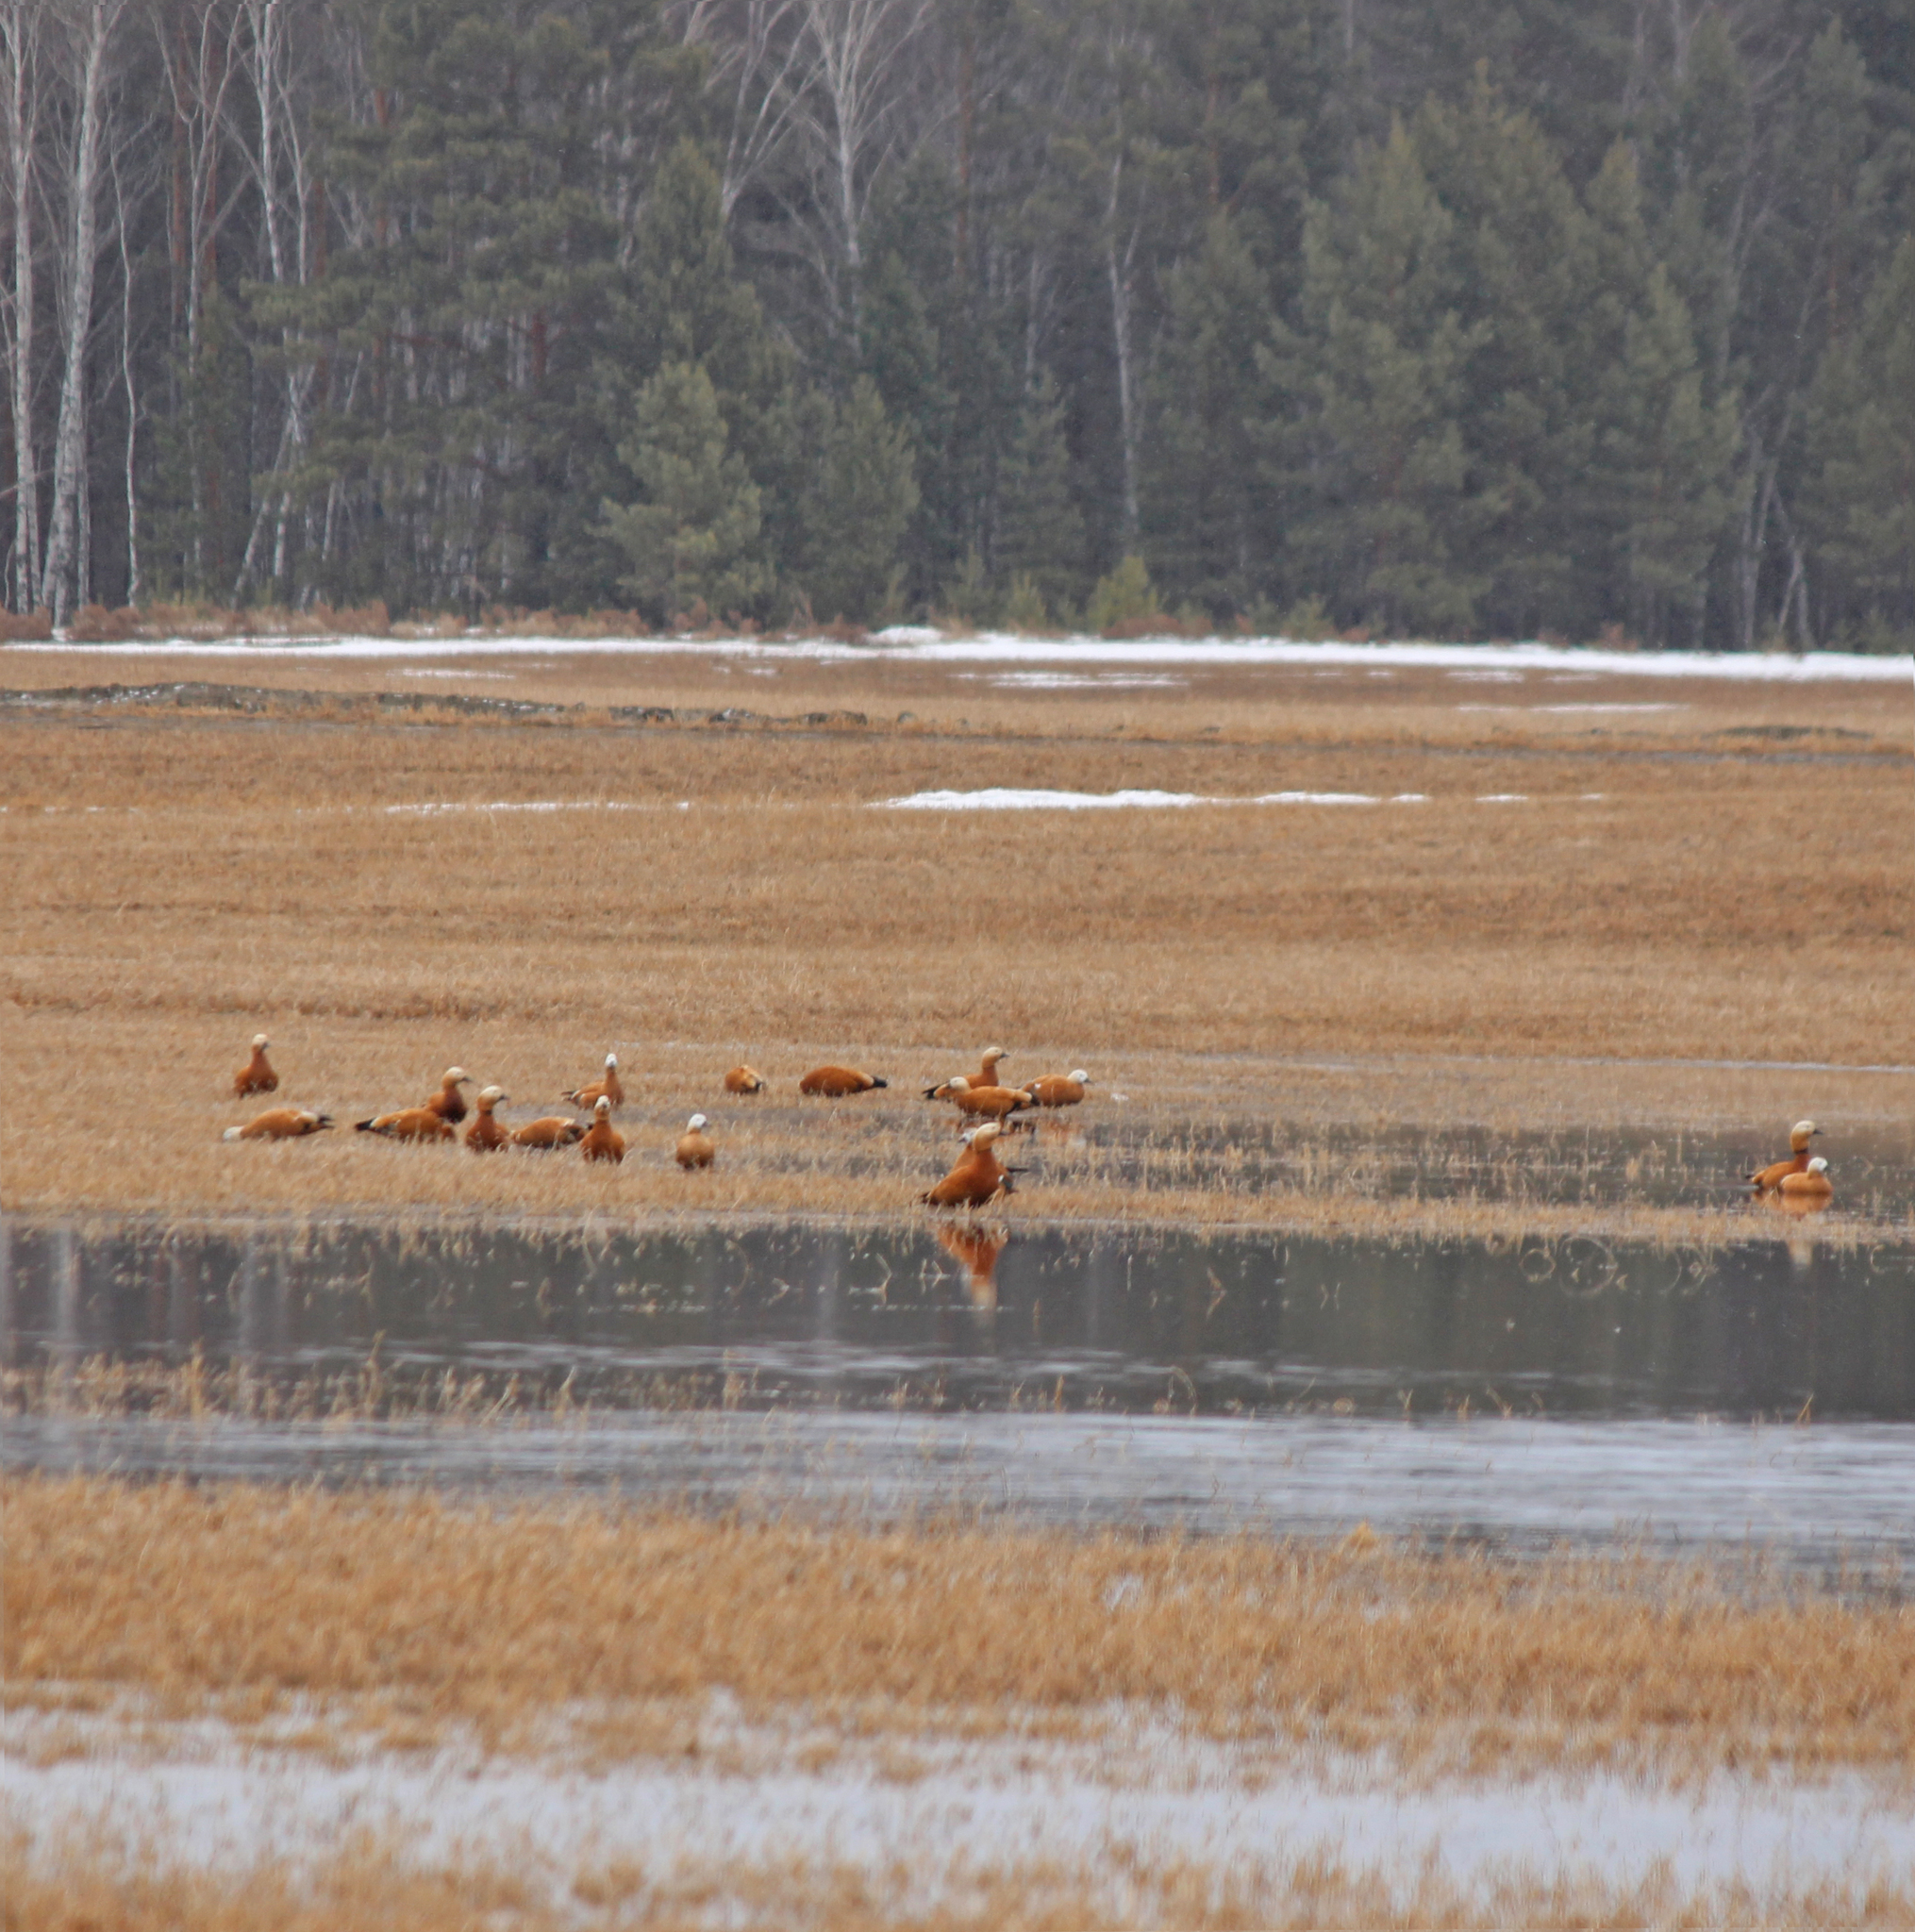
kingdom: Animalia
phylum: Chordata
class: Aves
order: Anseriformes
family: Anatidae
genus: Tadorna
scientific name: Tadorna ferruginea
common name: Ruddy shelduck
